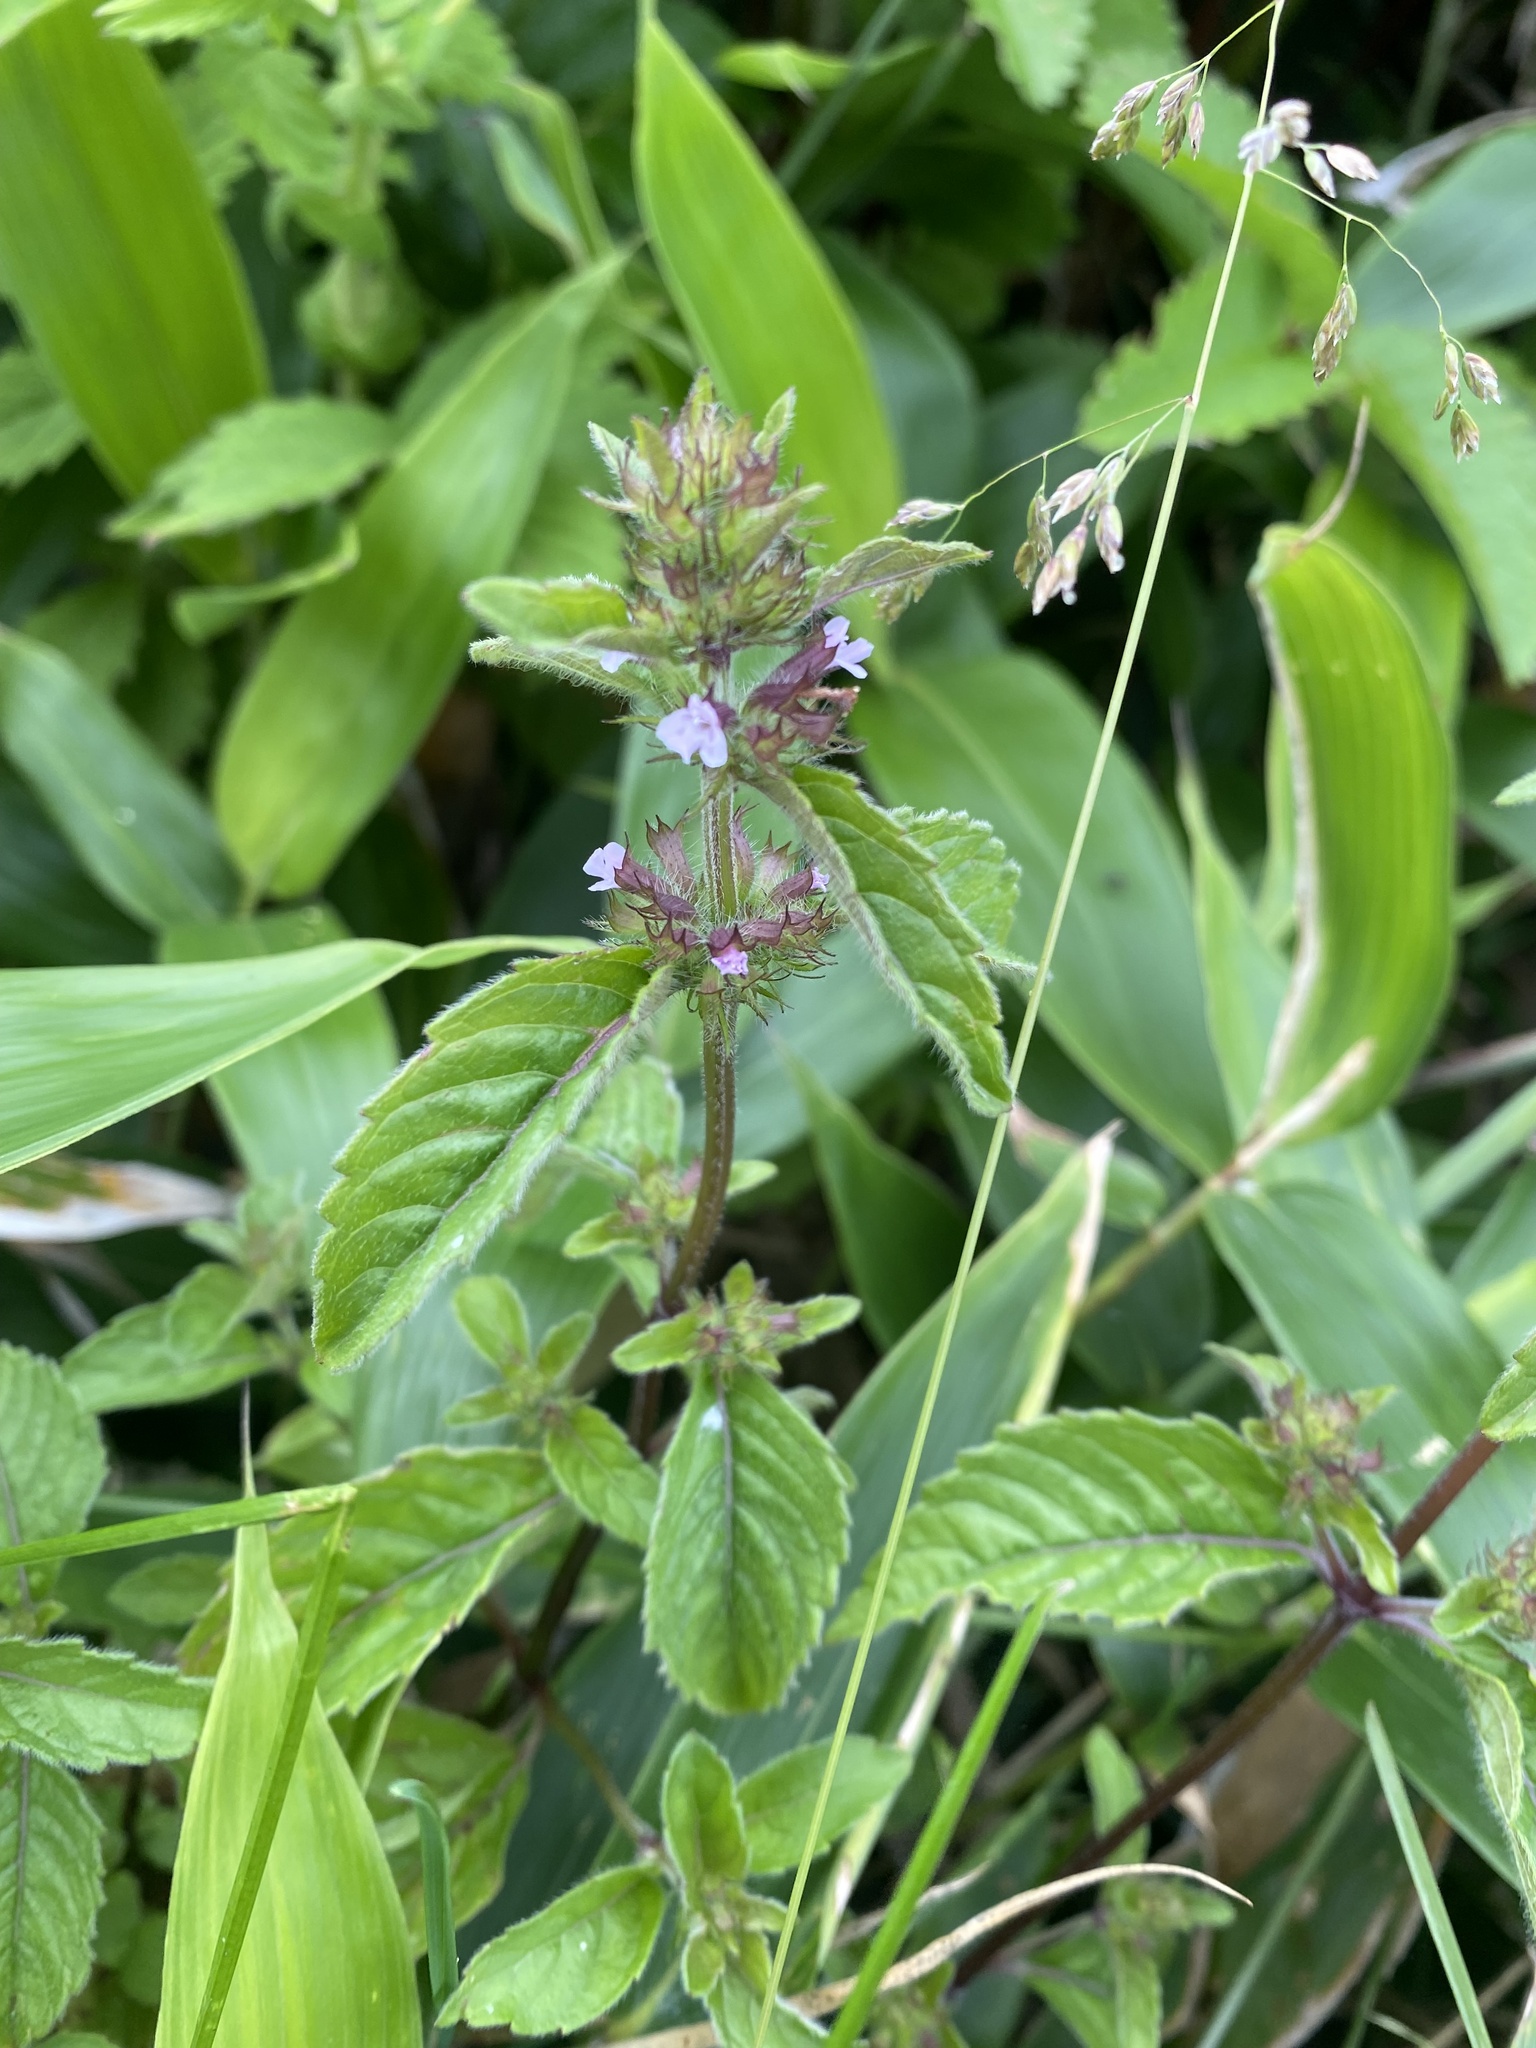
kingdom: Plantae
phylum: Tracheophyta
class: Magnoliopsida
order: Lamiales
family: Lamiaceae
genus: Mentha
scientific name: Mentha canadensis
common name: American corn mint
